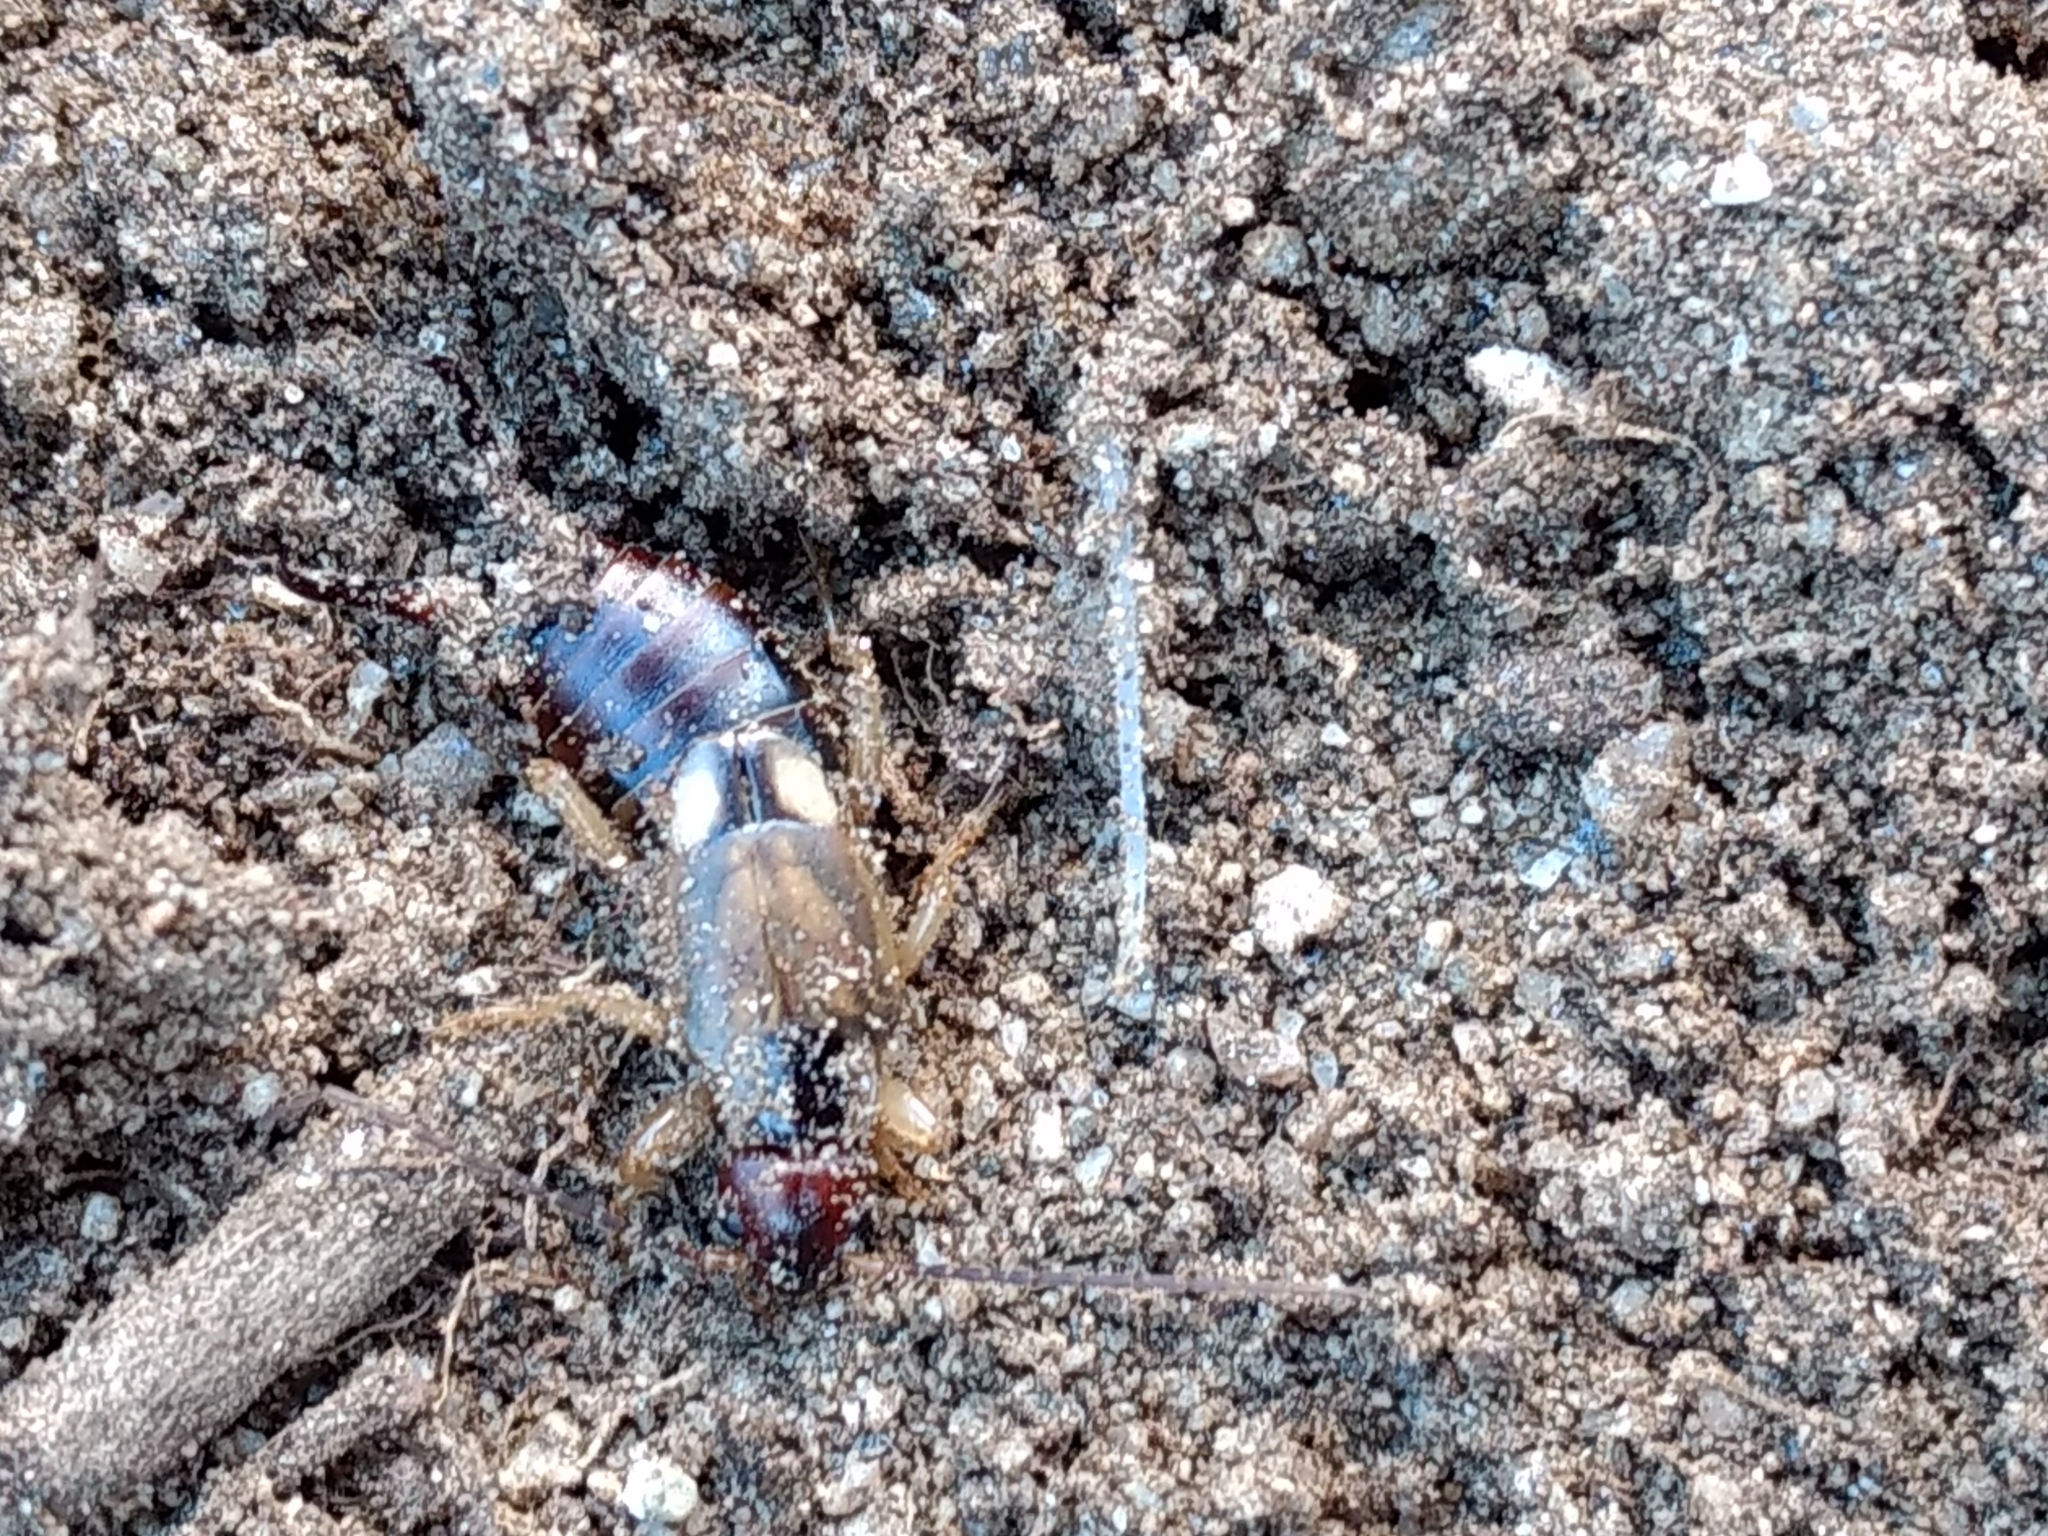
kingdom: Animalia
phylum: Arthropoda
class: Insecta
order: Dermaptera
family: Forficulidae
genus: Forficula
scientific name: Forficula
